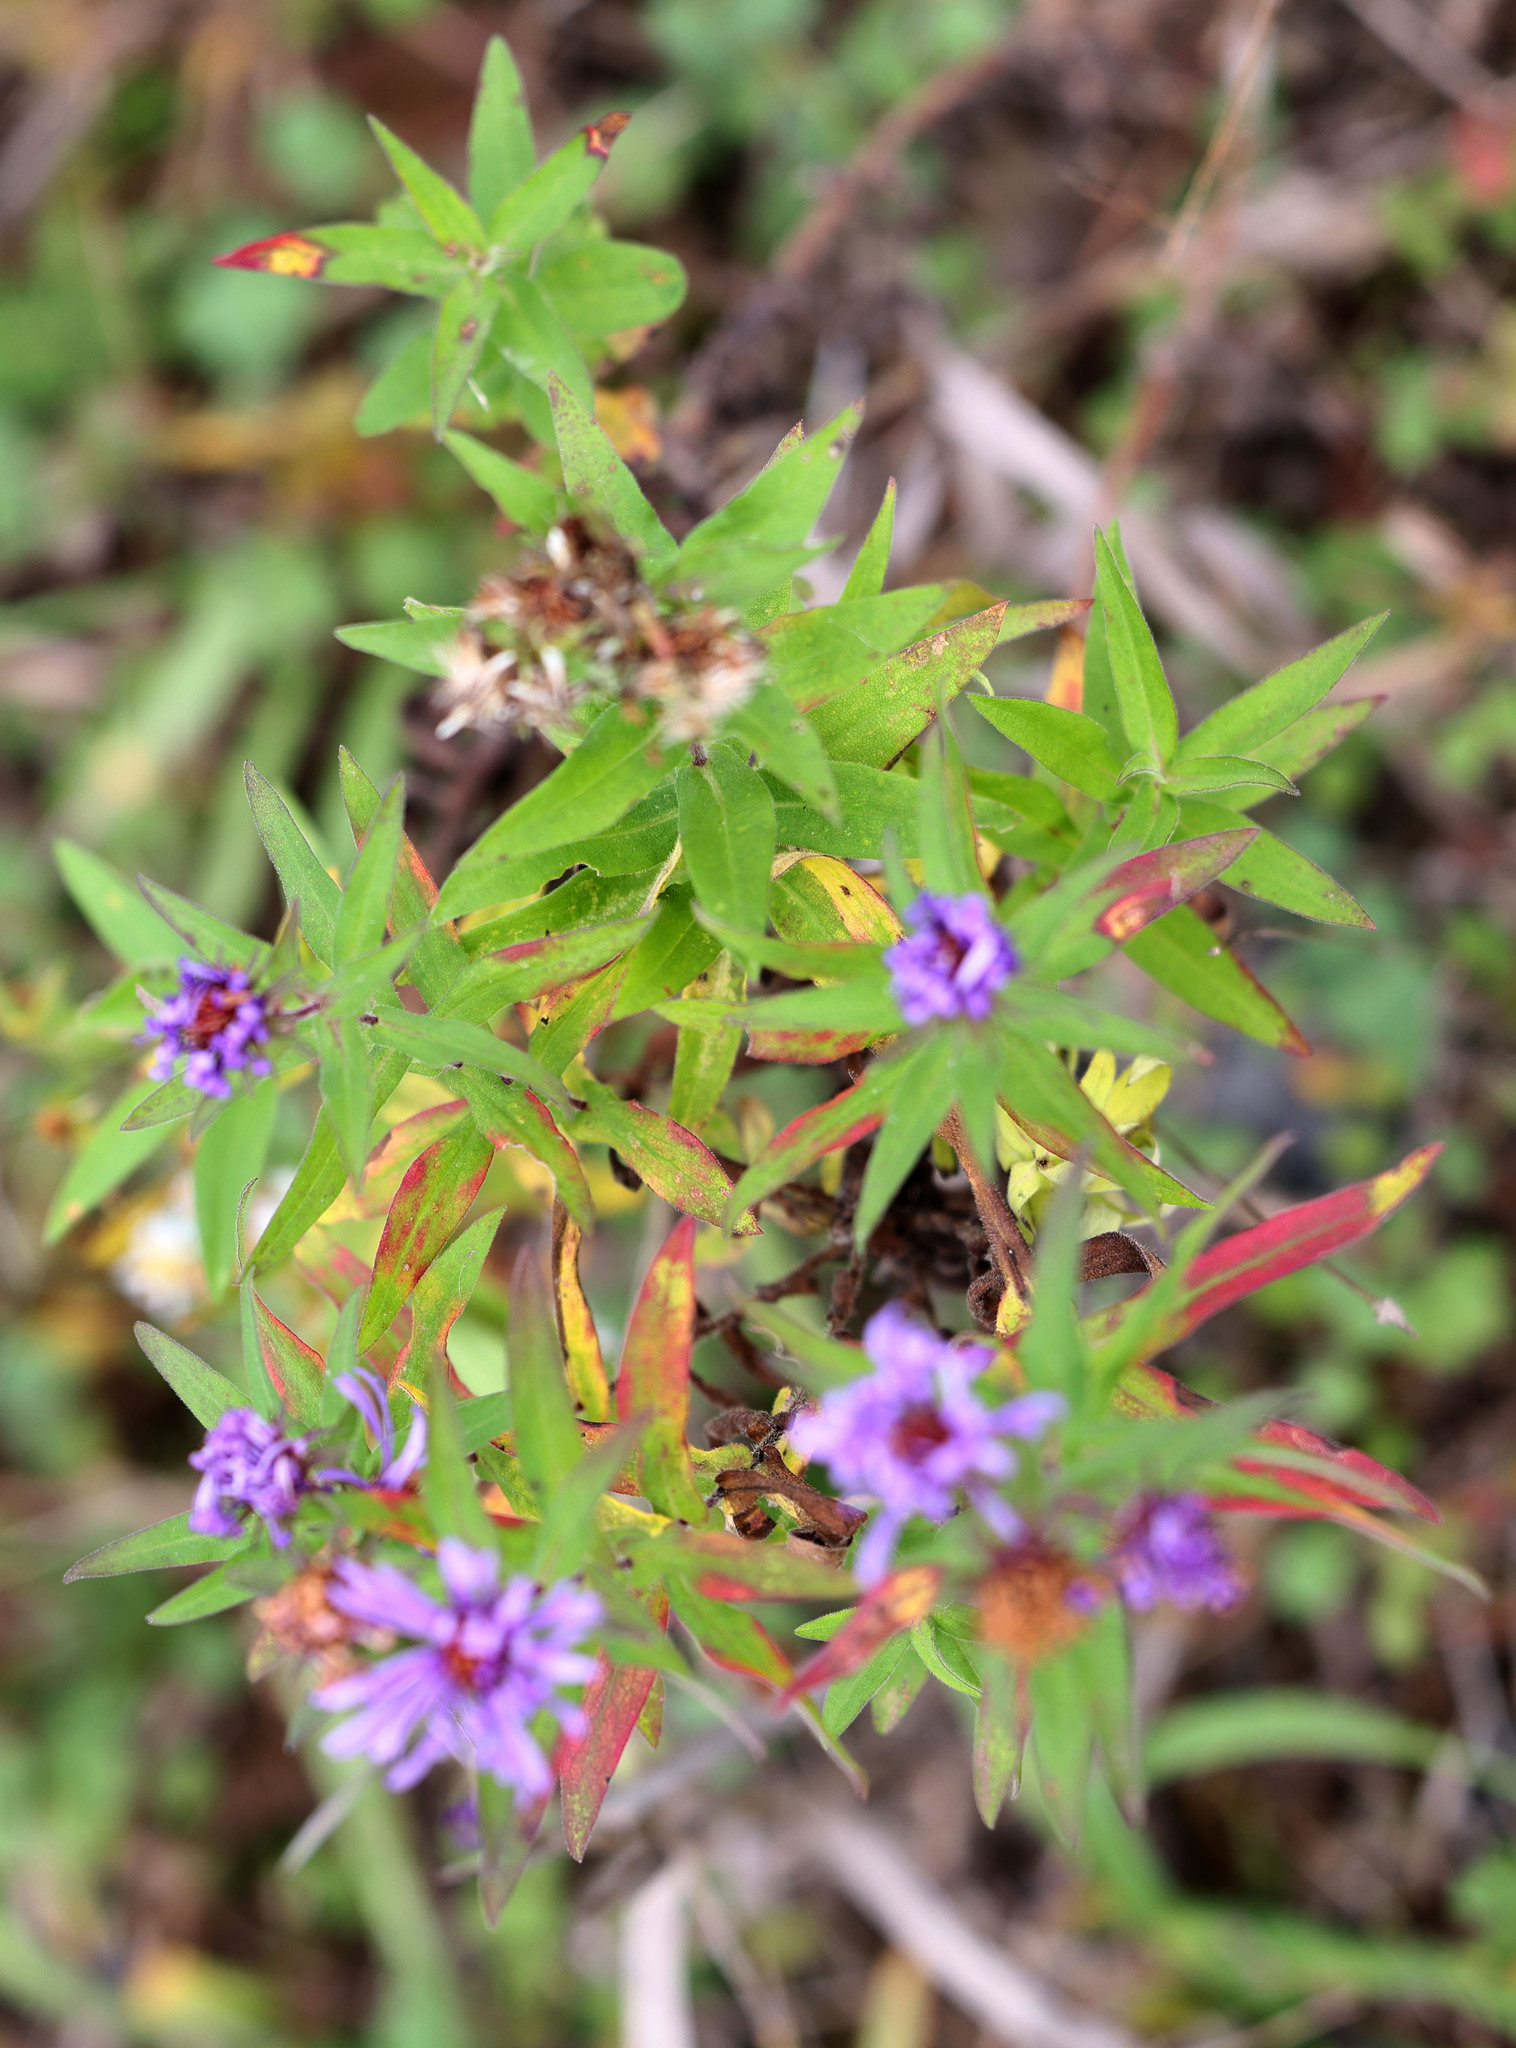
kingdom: Plantae
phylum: Tracheophyta
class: Magnoliopsida
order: Asterales
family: Asteraceae
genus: Symphyotrichum
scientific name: Symphyotrichum novae-angliae
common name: Michaelmas daisy
